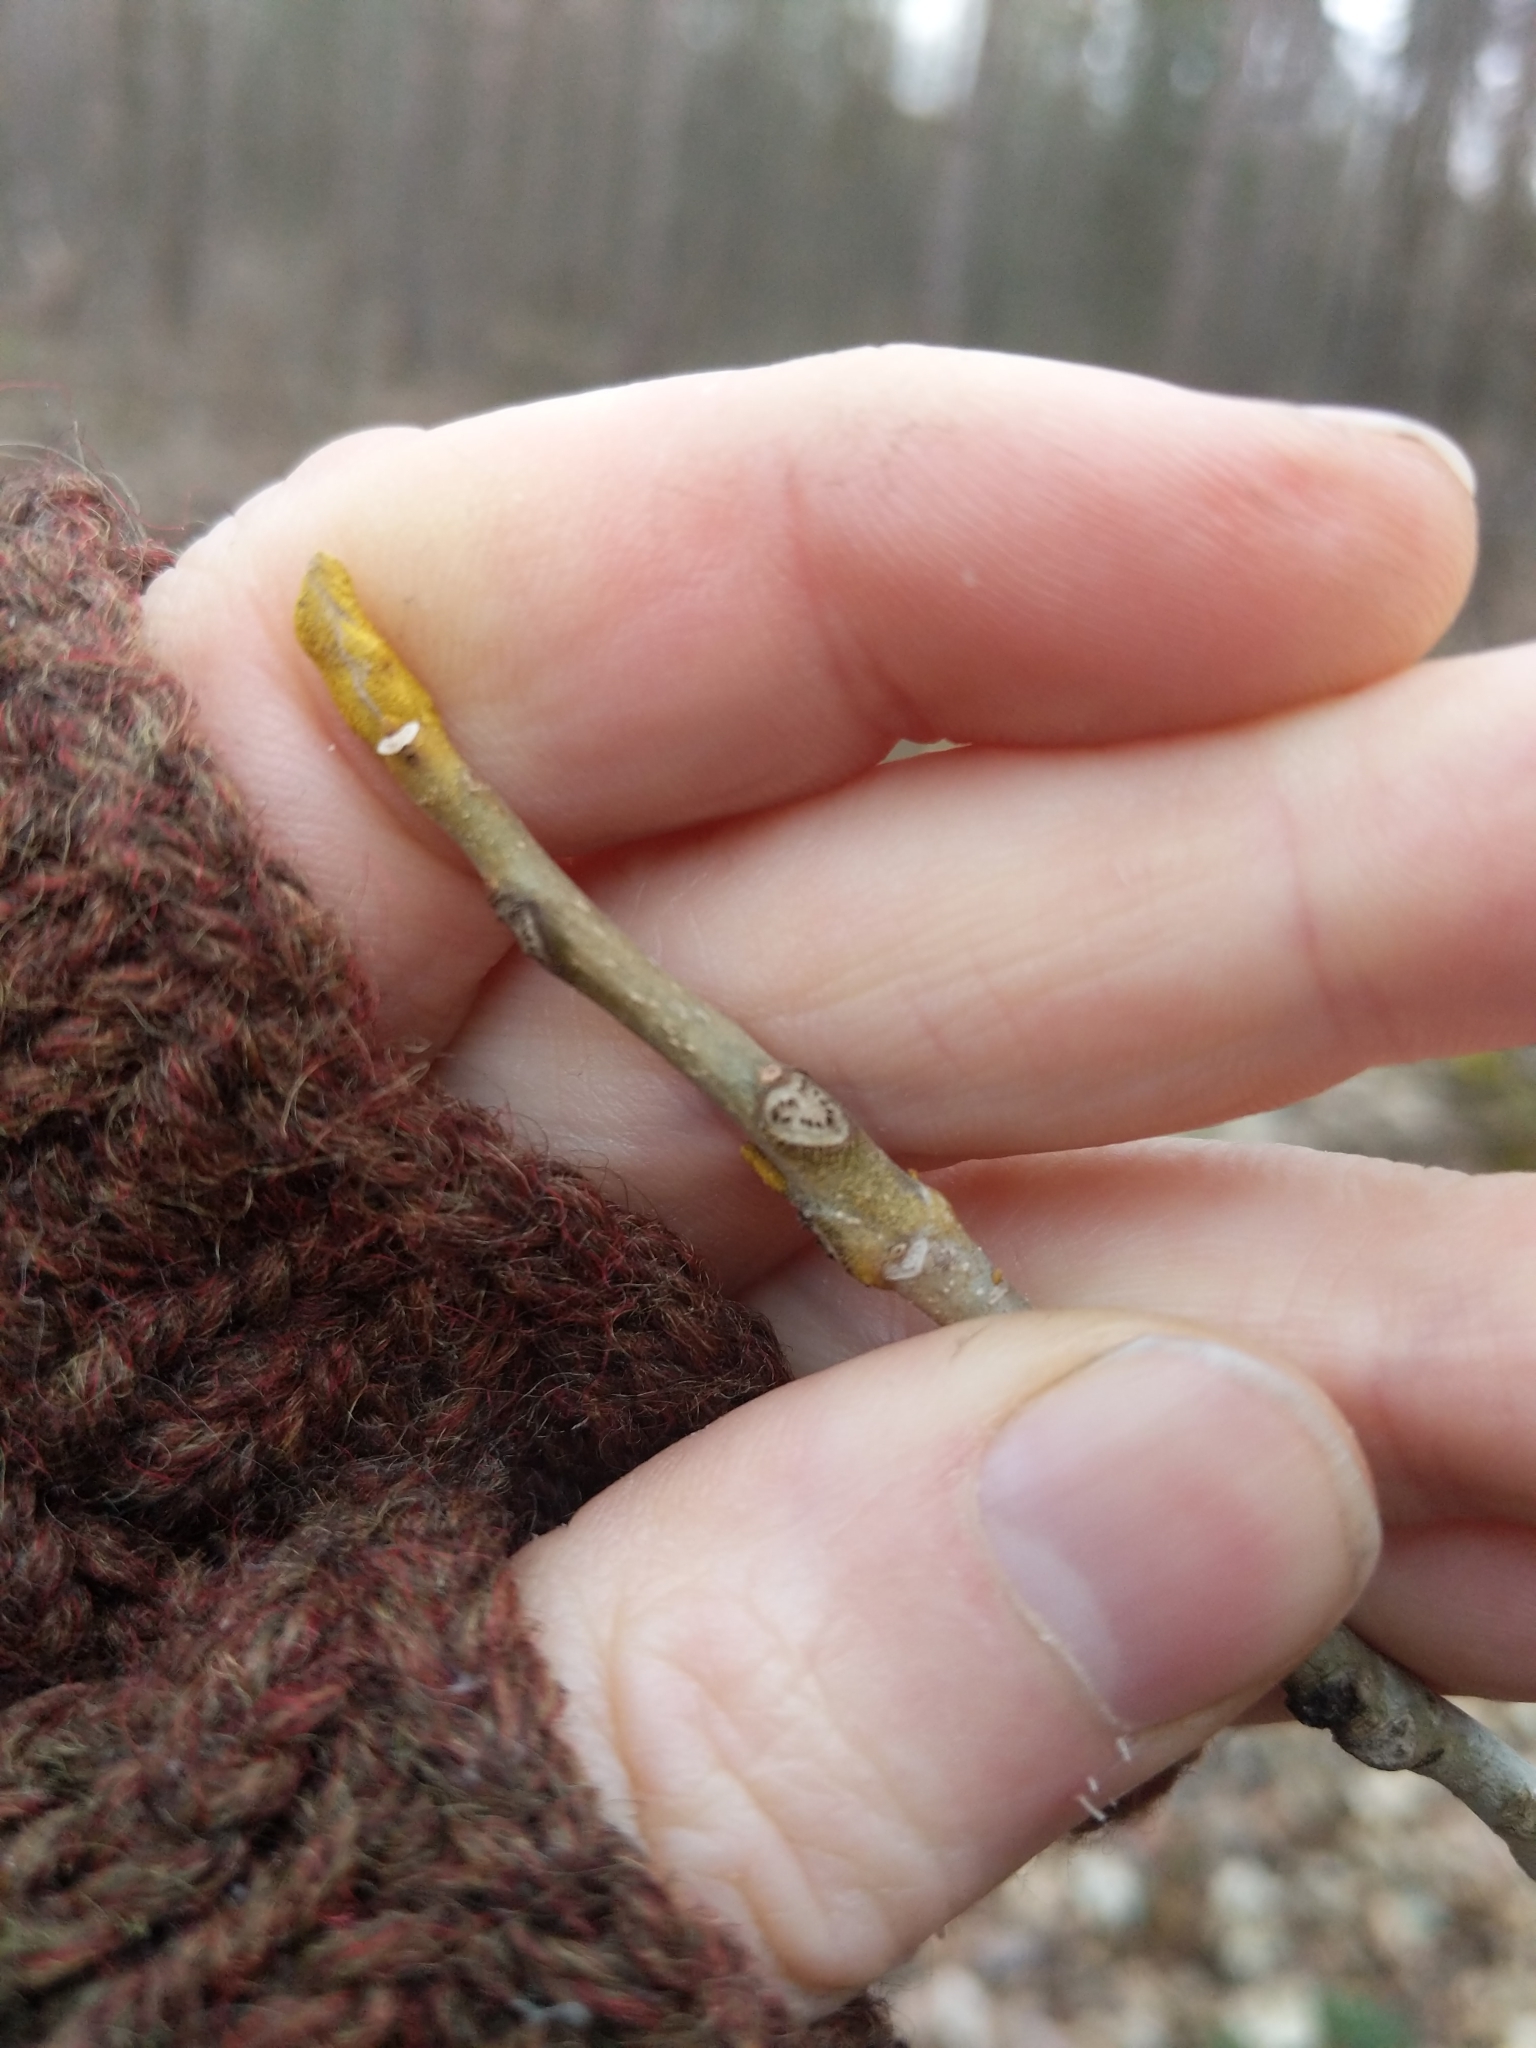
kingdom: Plantae
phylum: Tracheophyta
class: Magnoliopsida
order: Fagales
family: Juglandaceae
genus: Carya
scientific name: Carya cordiformis
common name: Bitternut hickory
